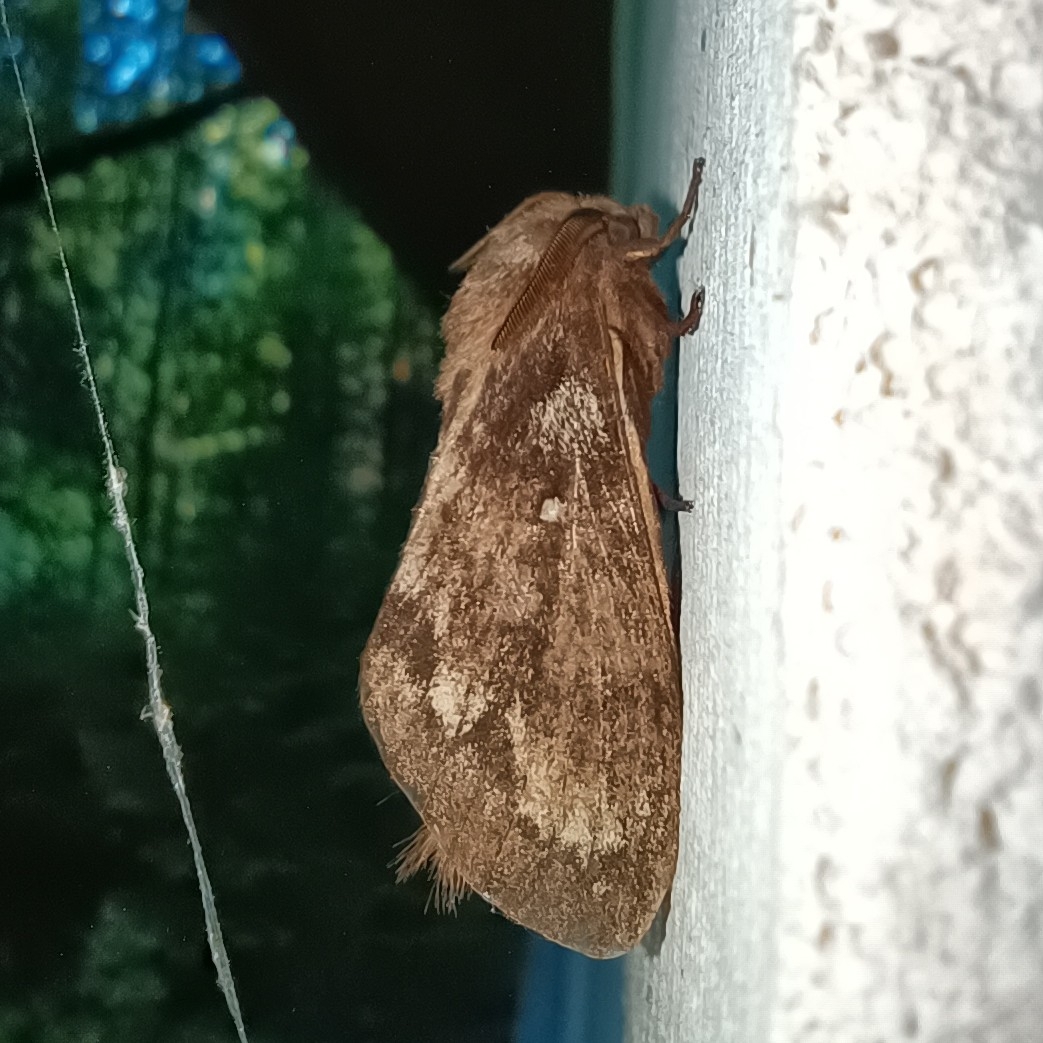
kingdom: Animalia
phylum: Arthropoda
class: Insecta
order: Lepidoptera
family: Lasiocampidae
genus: Dendrolimus
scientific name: Dendrolimus pini
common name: Pine-tree lappet
